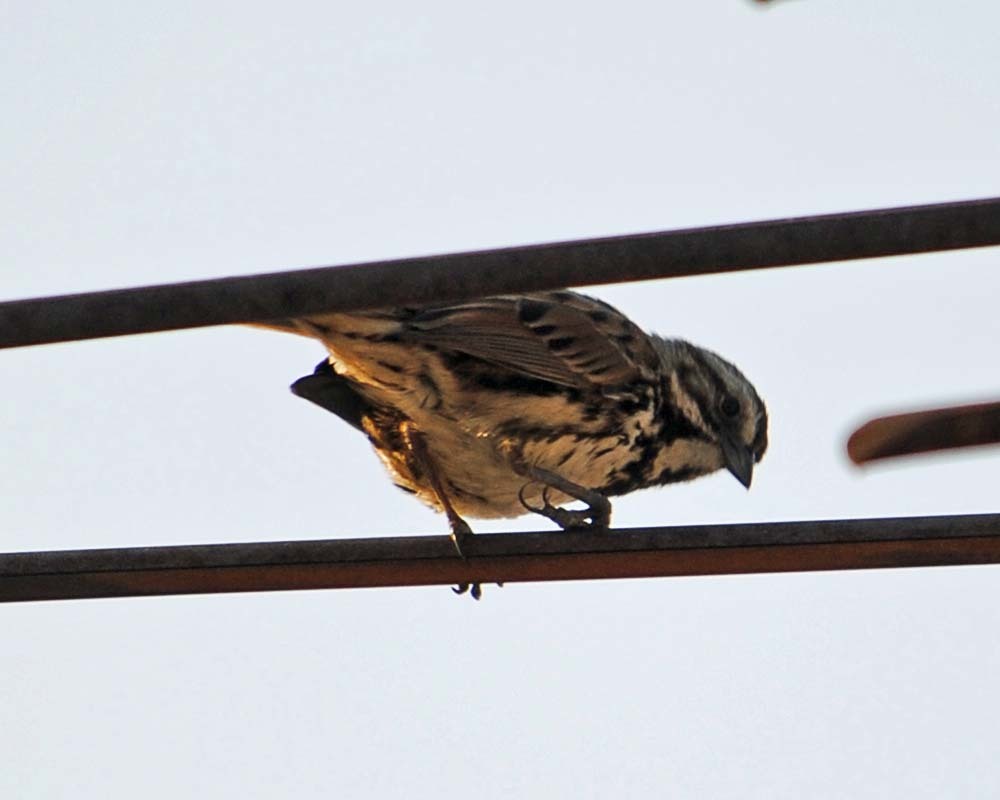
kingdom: Animalia
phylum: Chordata
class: Aves
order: Passeriformes
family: Passerellidae
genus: Melospiza
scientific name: Melospiza melodia
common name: Song sparrow
